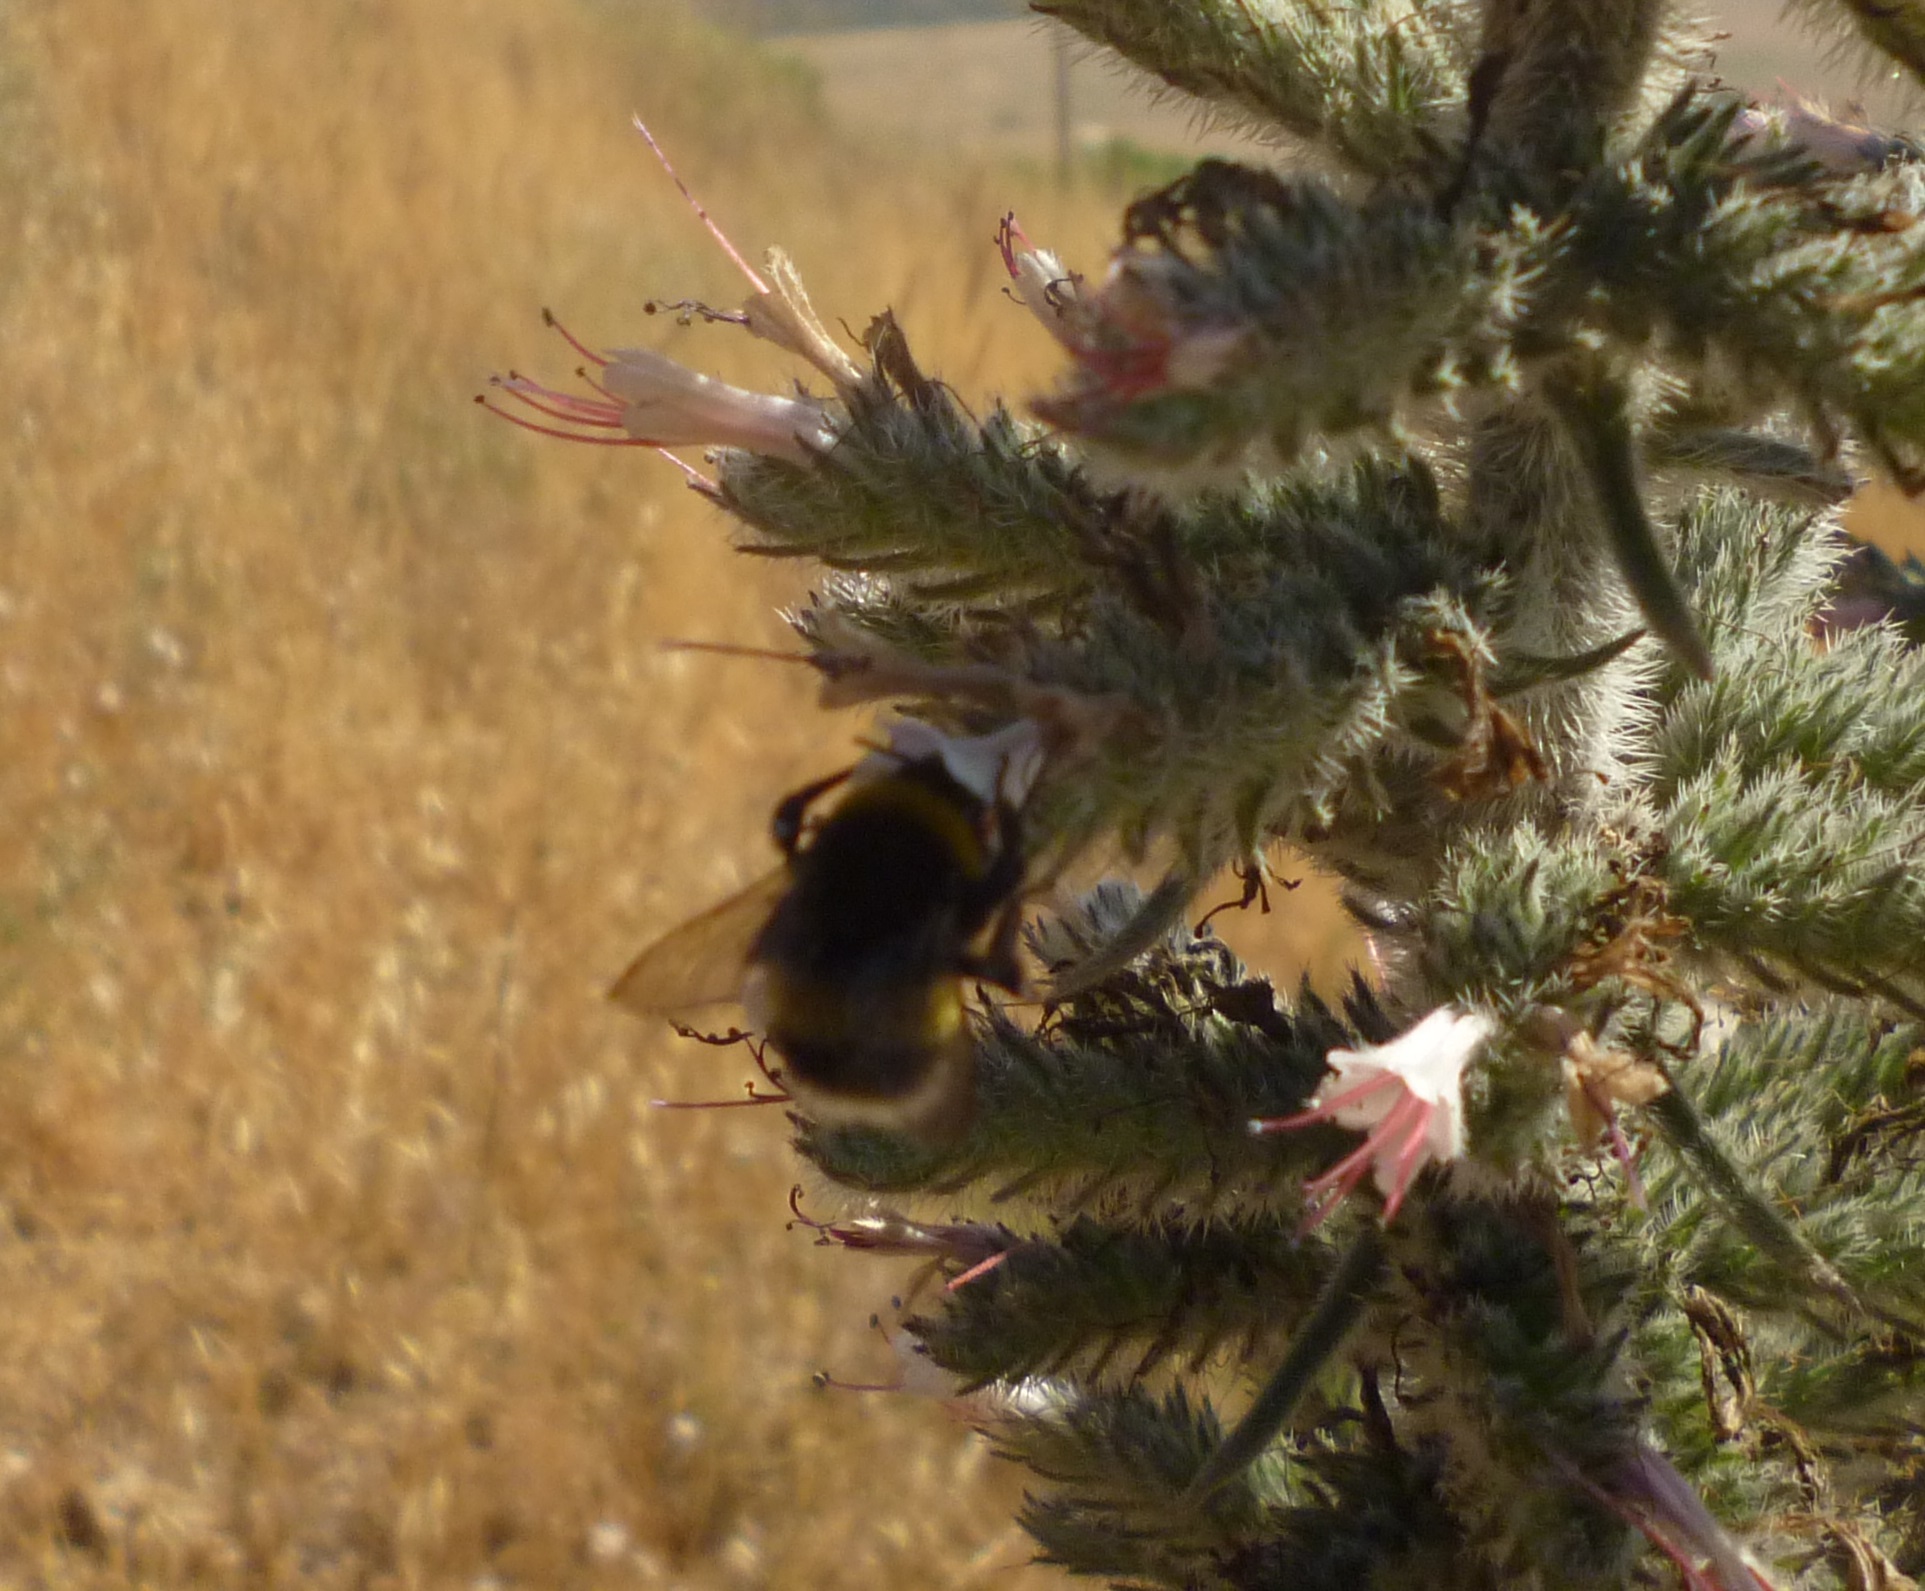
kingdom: Animalia
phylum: Arthropoda
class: Insecta
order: Hymenoptera
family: Apidae
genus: Bombus
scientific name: Bombus terrestris
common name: Buff-tailed bumblebee
